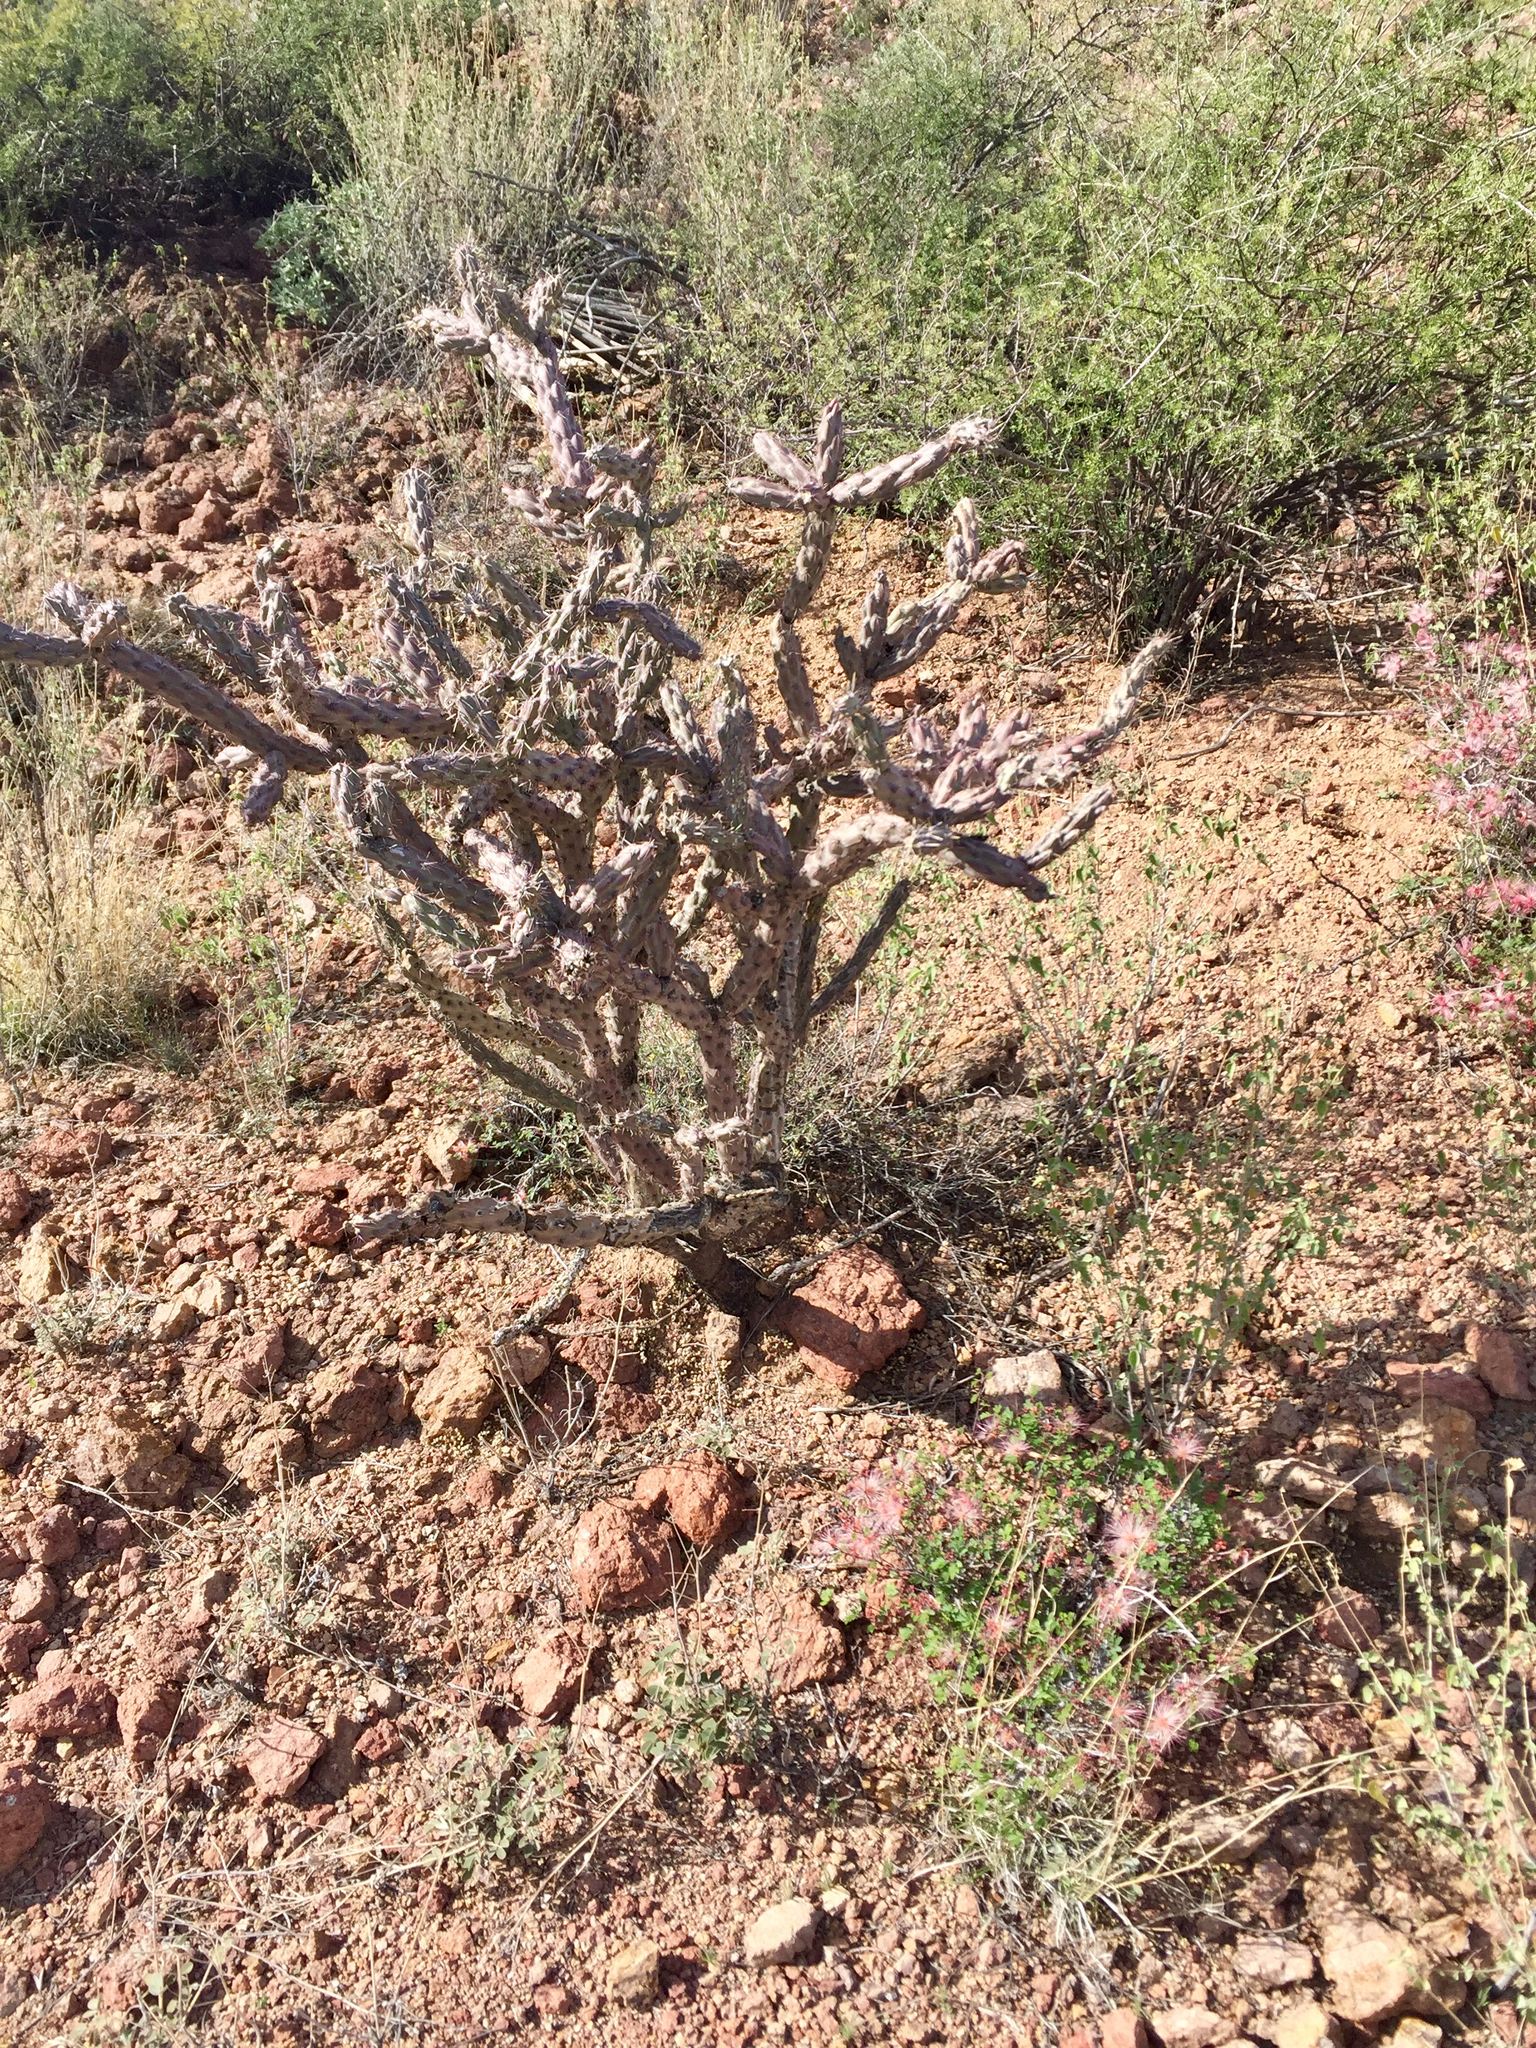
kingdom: Plantae
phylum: Tracheophyta
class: Magnoliopsida
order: Caryophyllales
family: Cactaceae
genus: Cylindropuntia
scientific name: Cylindropuntia thurberi
